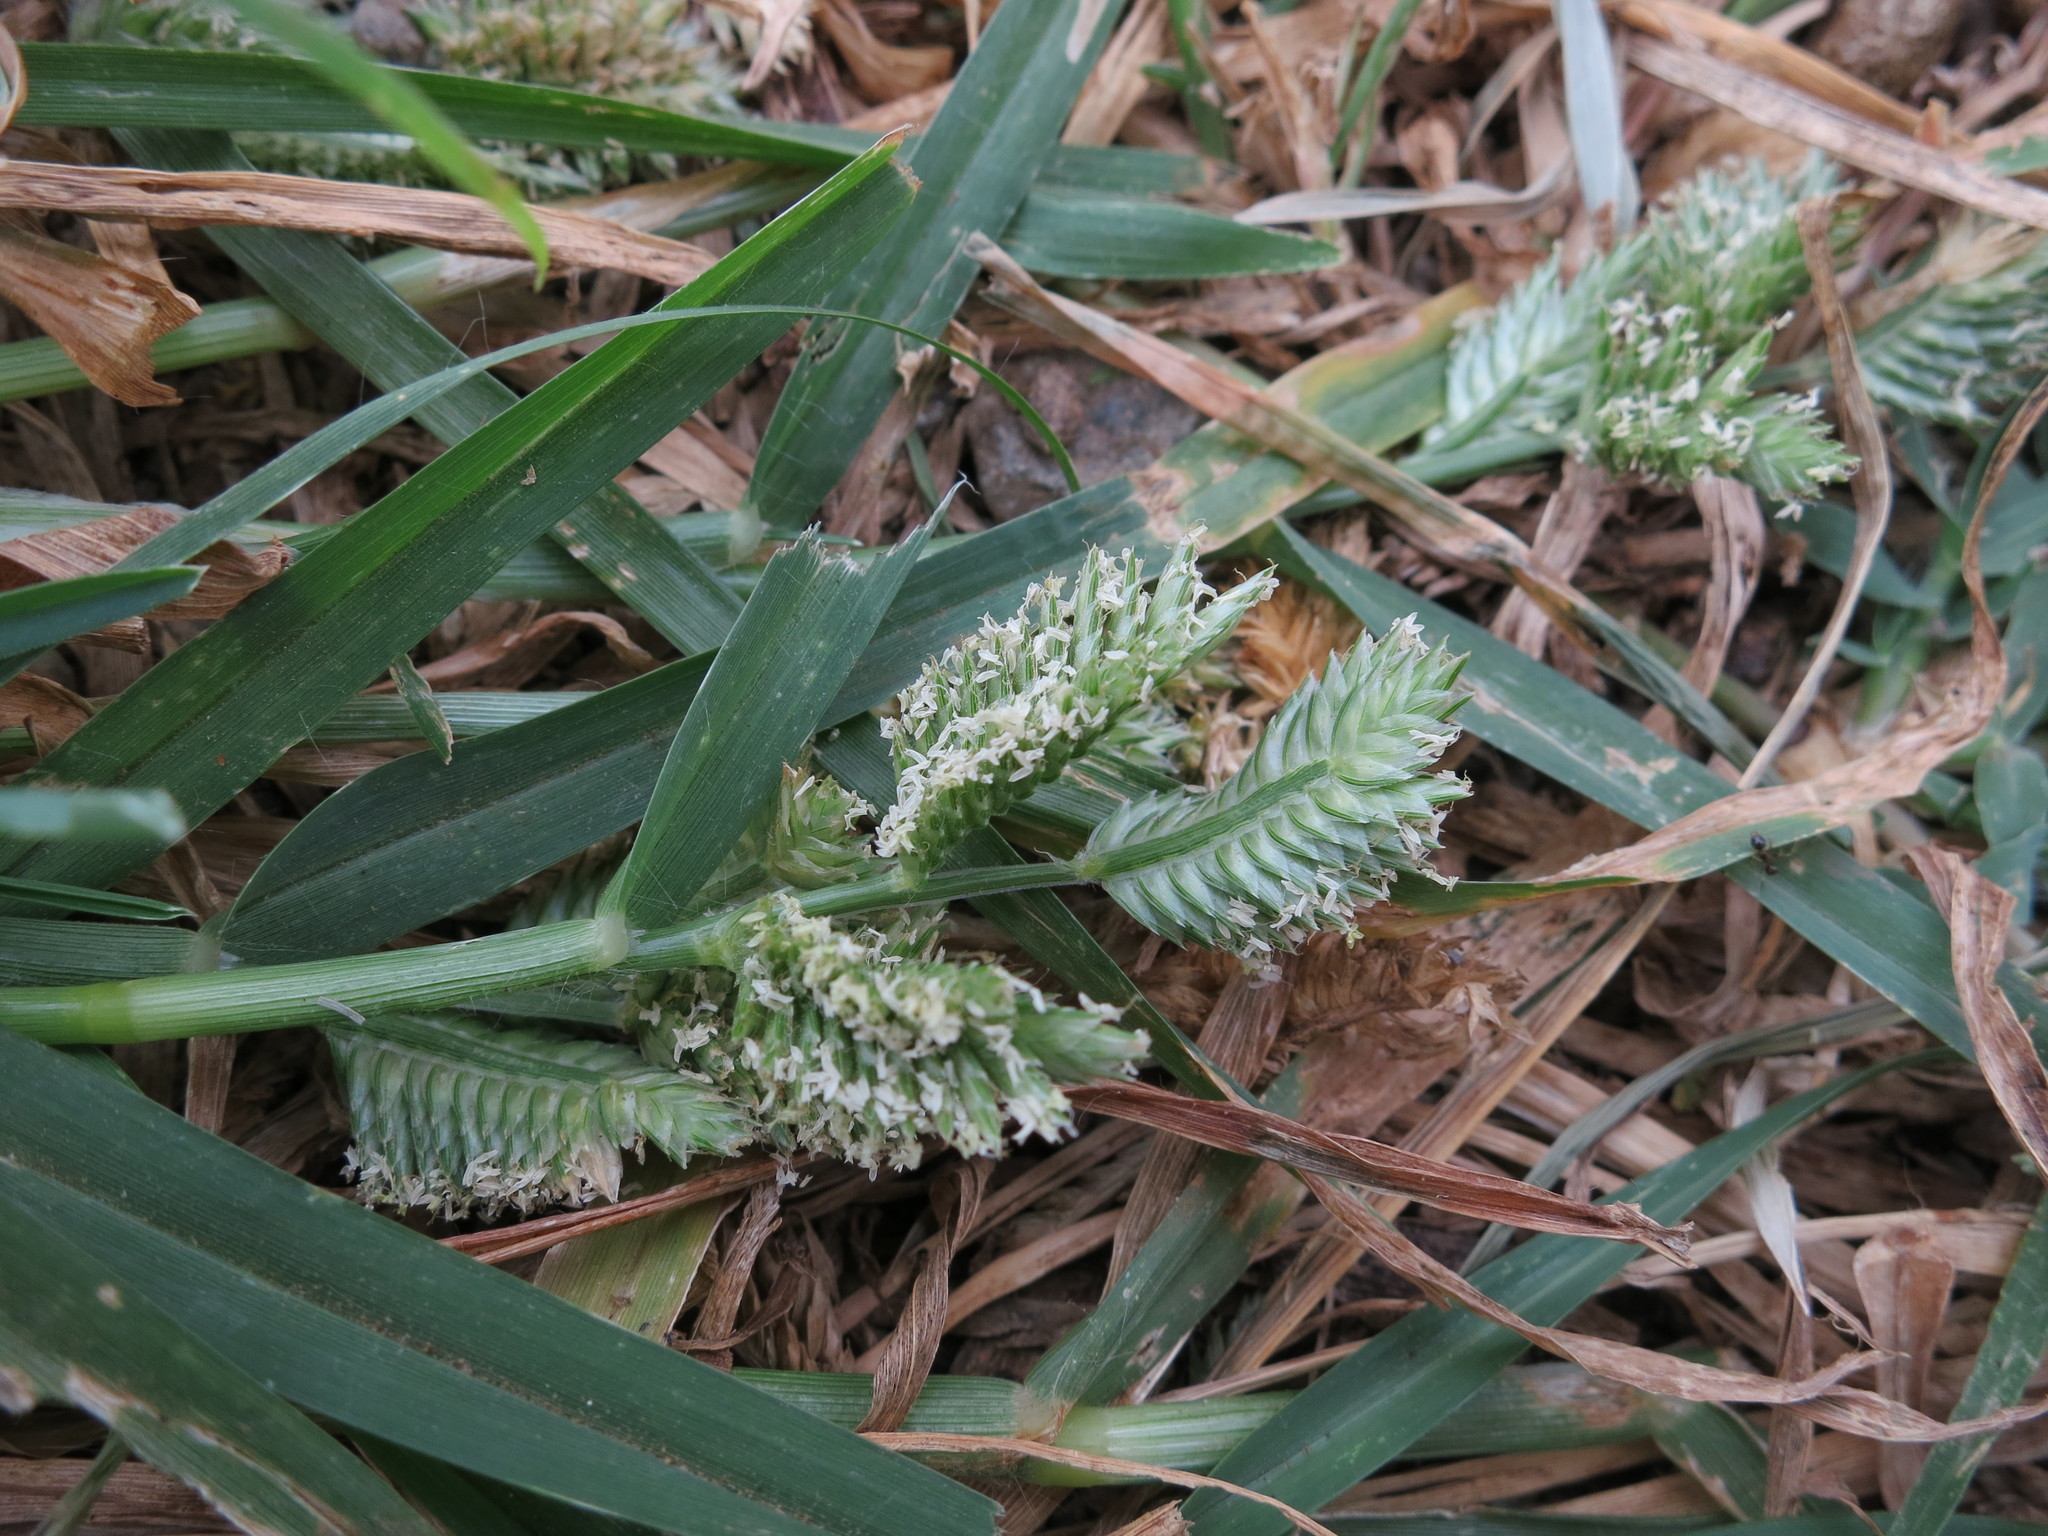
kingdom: Plantae
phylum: Tracheophyta
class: Liliopsida
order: Poales
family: Poaceae
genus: Eleusine
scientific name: Eleusine multiflora
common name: Fat-spiked yard-grass
